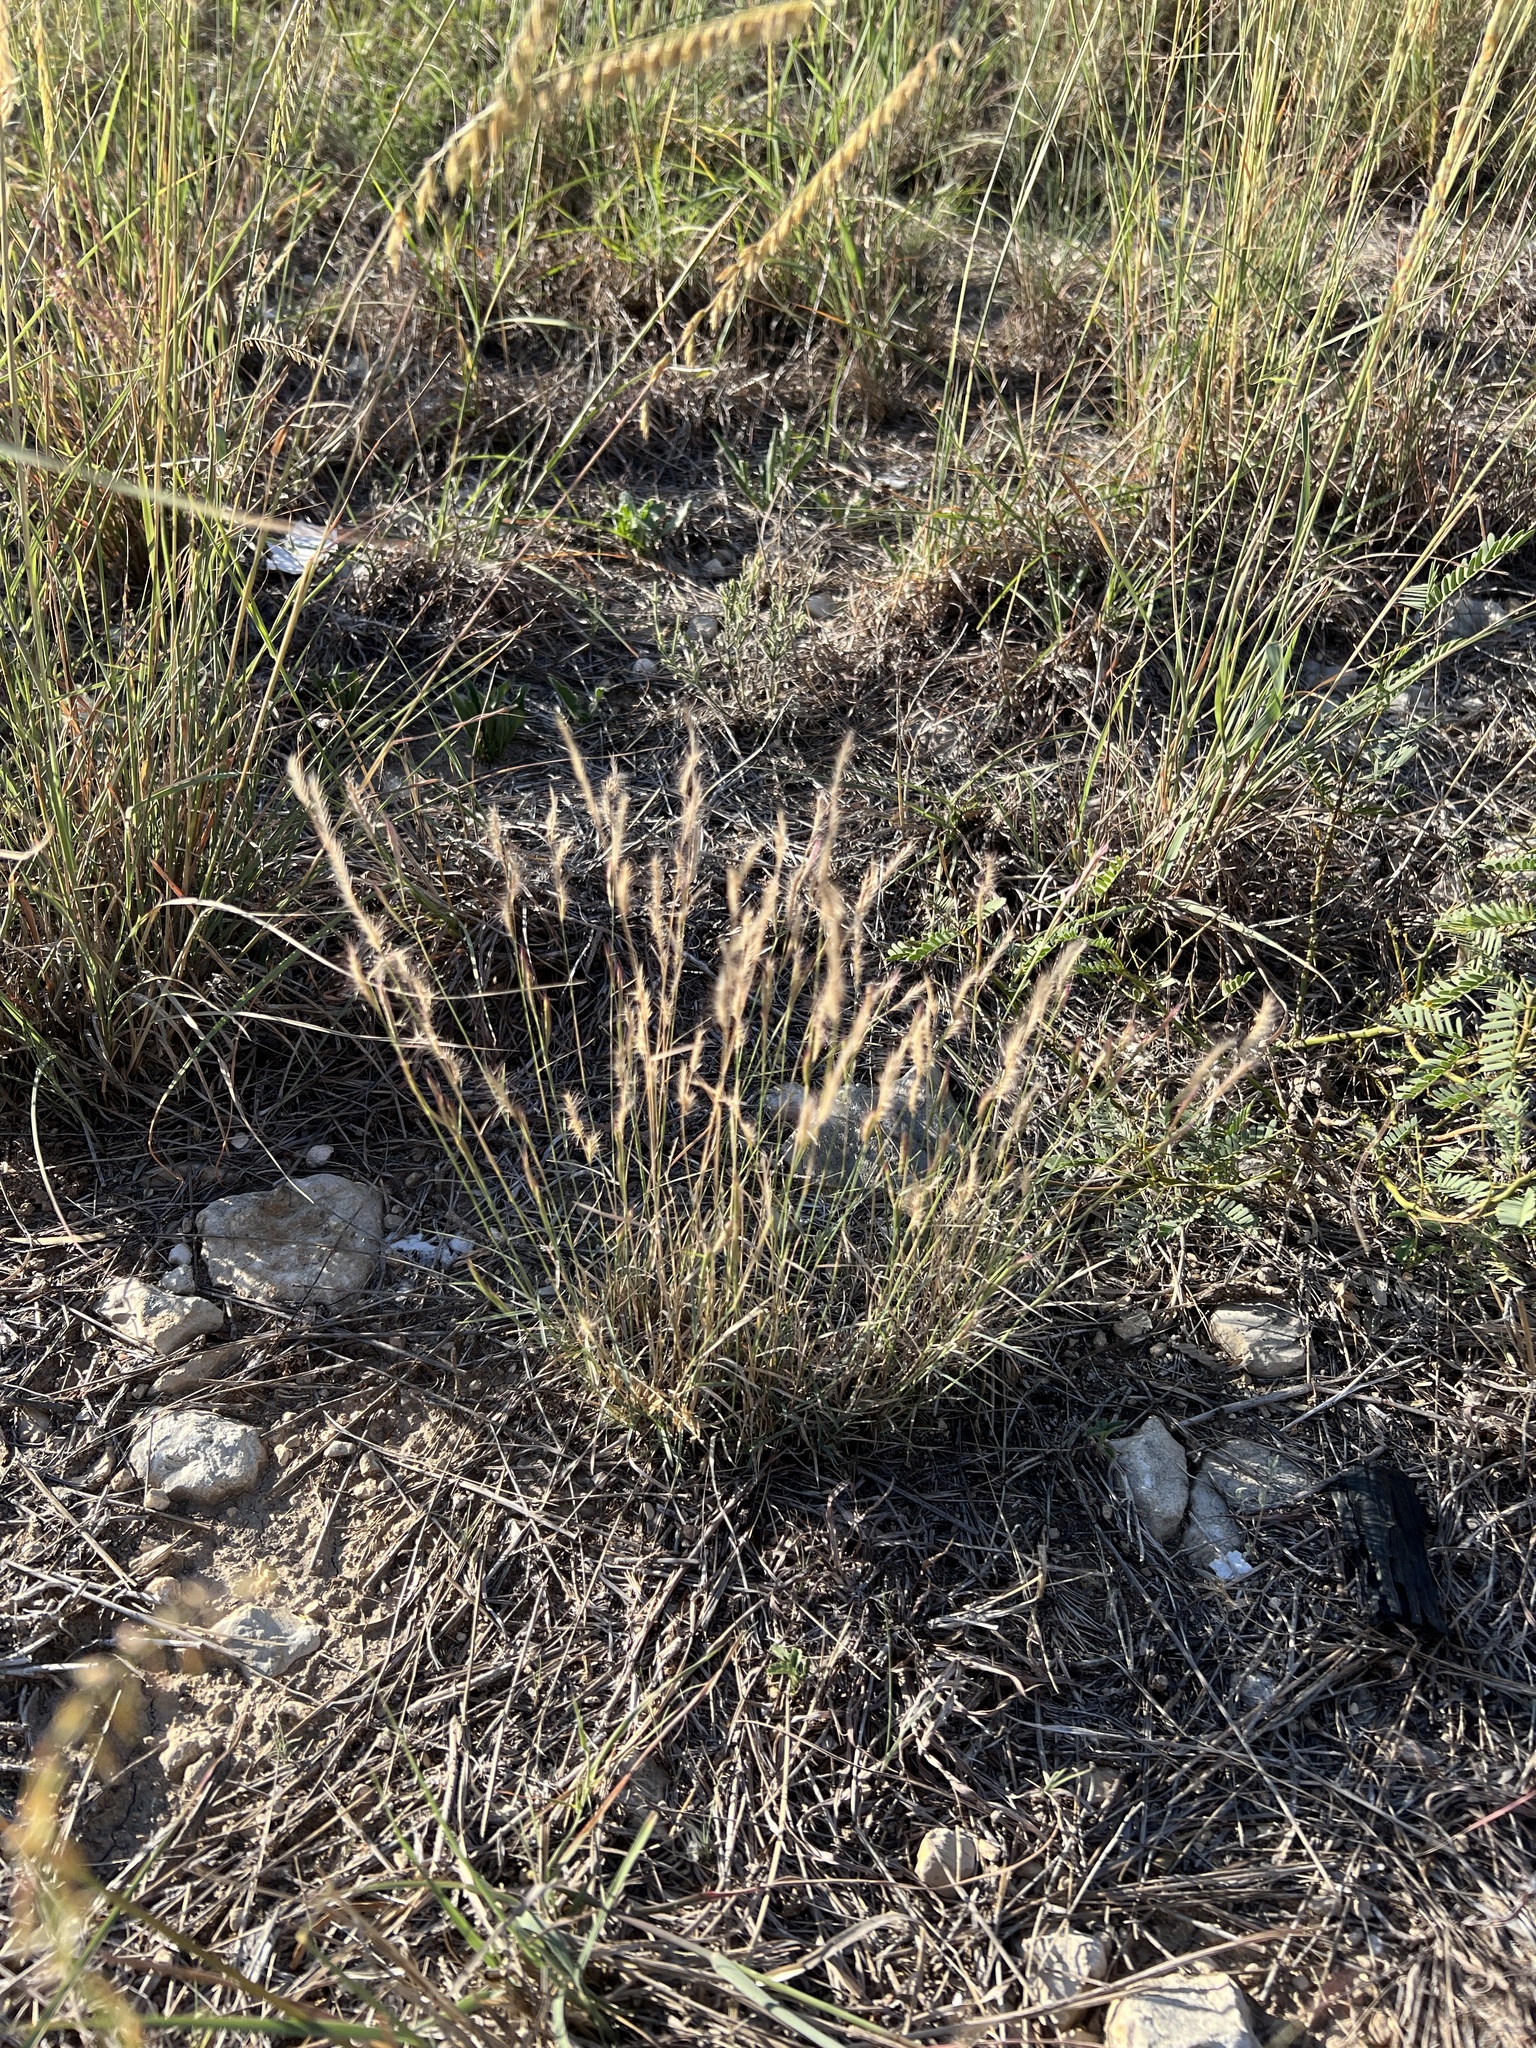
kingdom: Plantae
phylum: Tracheophyta
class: Liliopsida
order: Poales
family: Poaceae
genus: Bouteloua
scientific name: Bouteloua trifida
